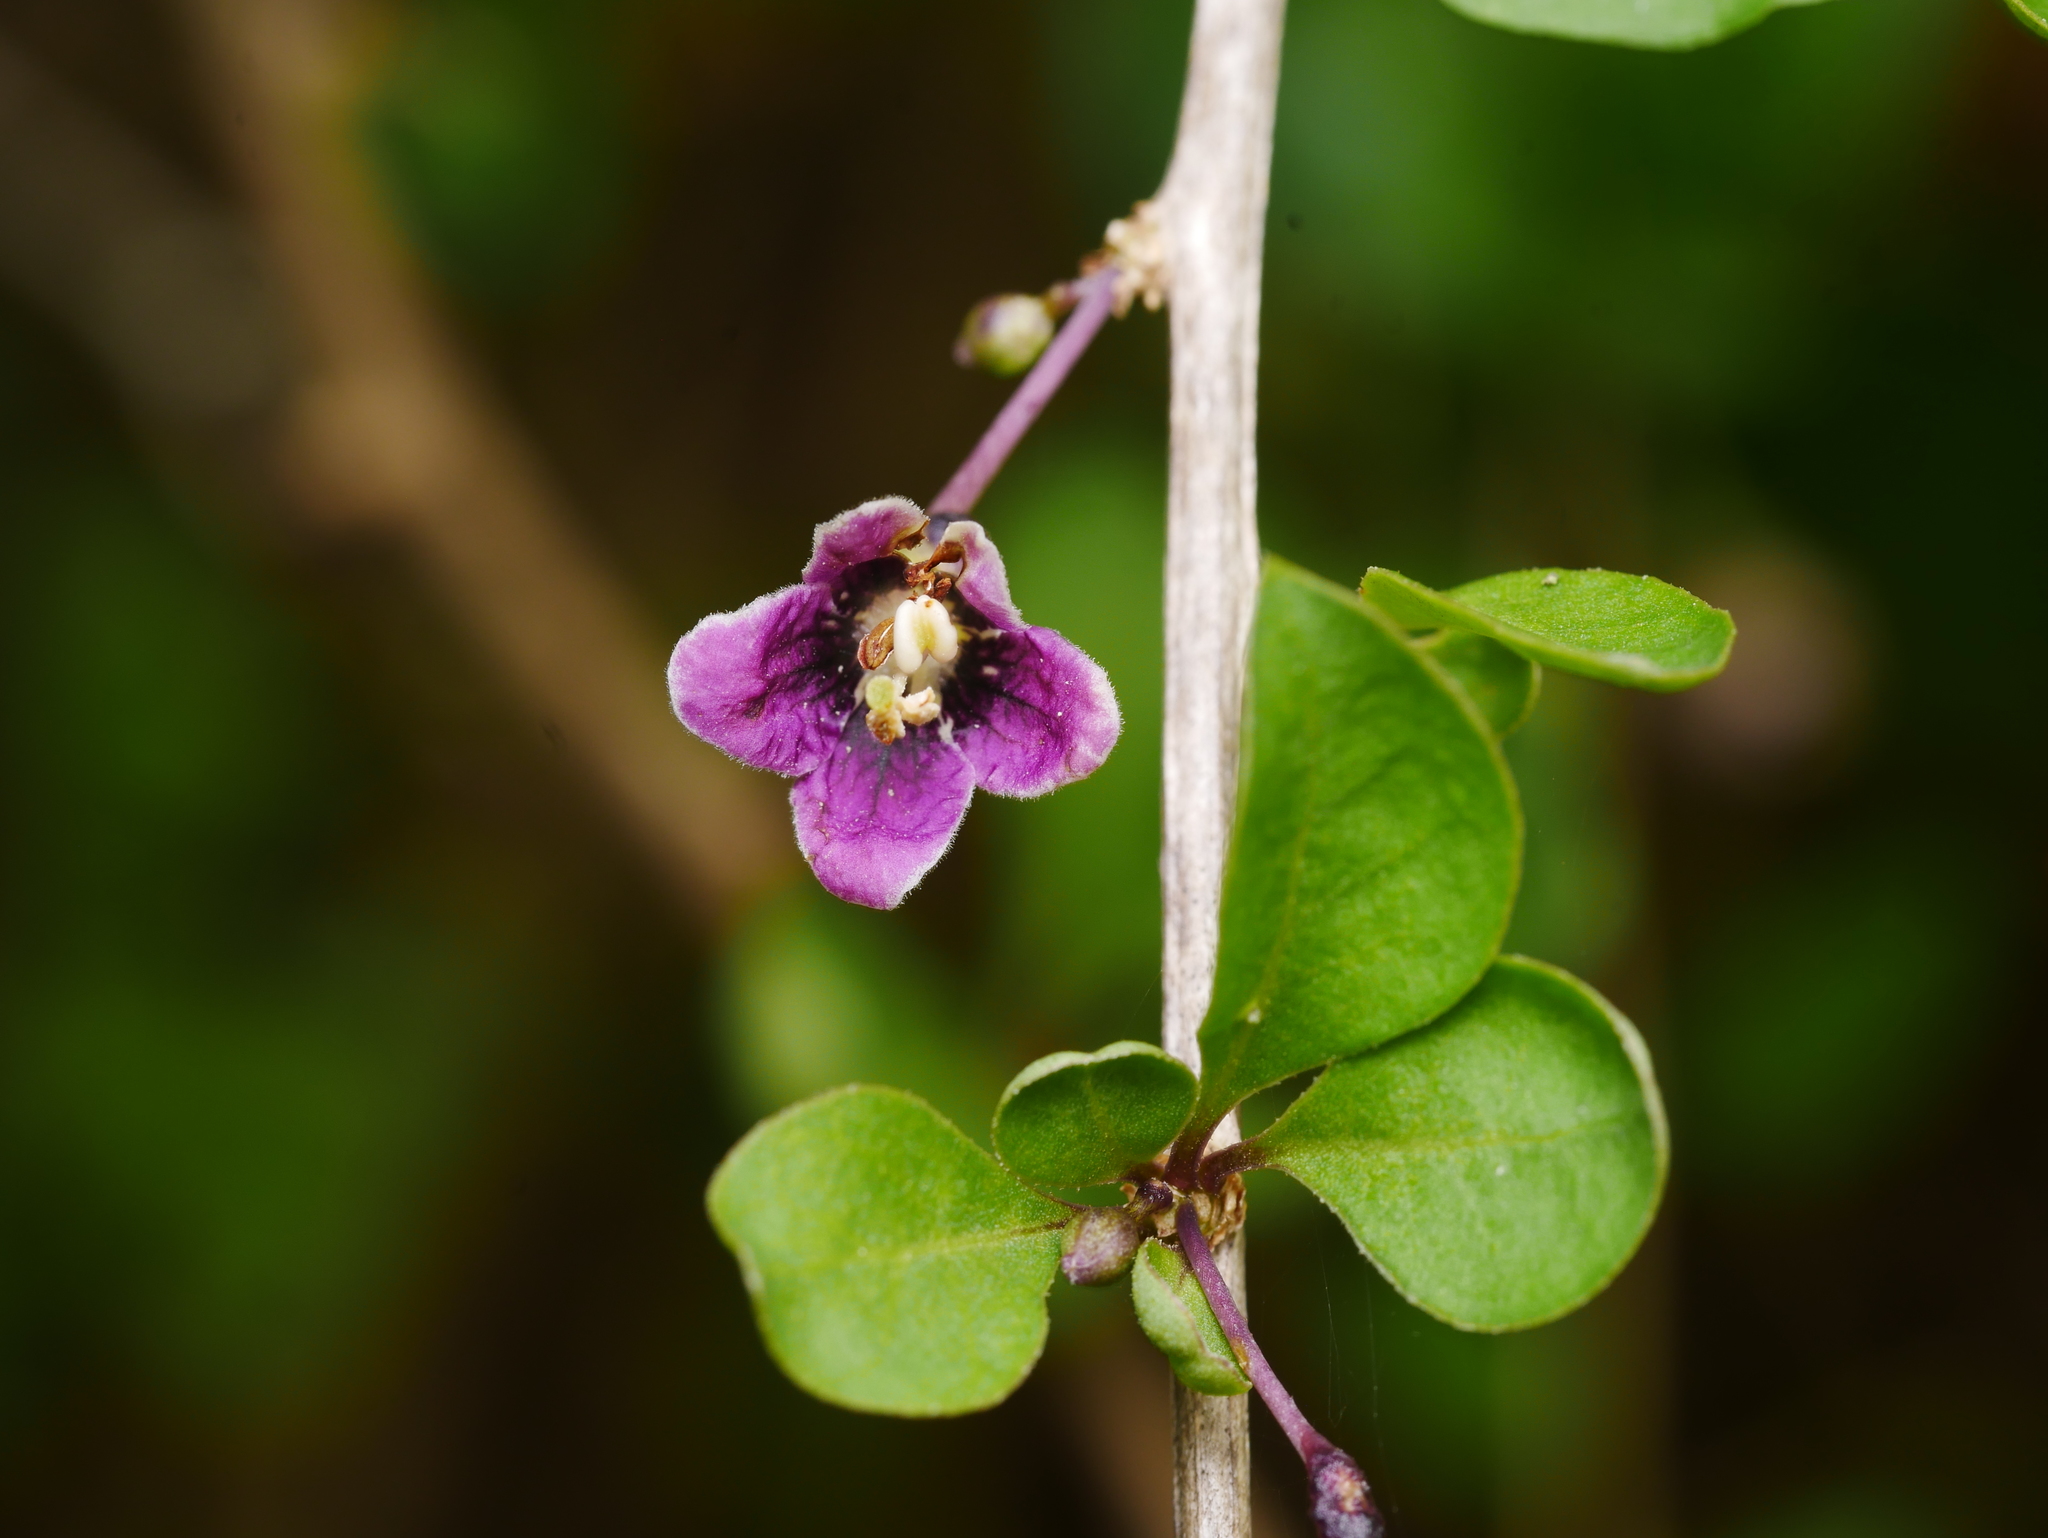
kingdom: Plantae
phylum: Tracheophyta
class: Magnoliopsida
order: Solanales
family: Solanaceae
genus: Lycium
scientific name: Lycium barbarum
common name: Duke of argyll's teaplant
